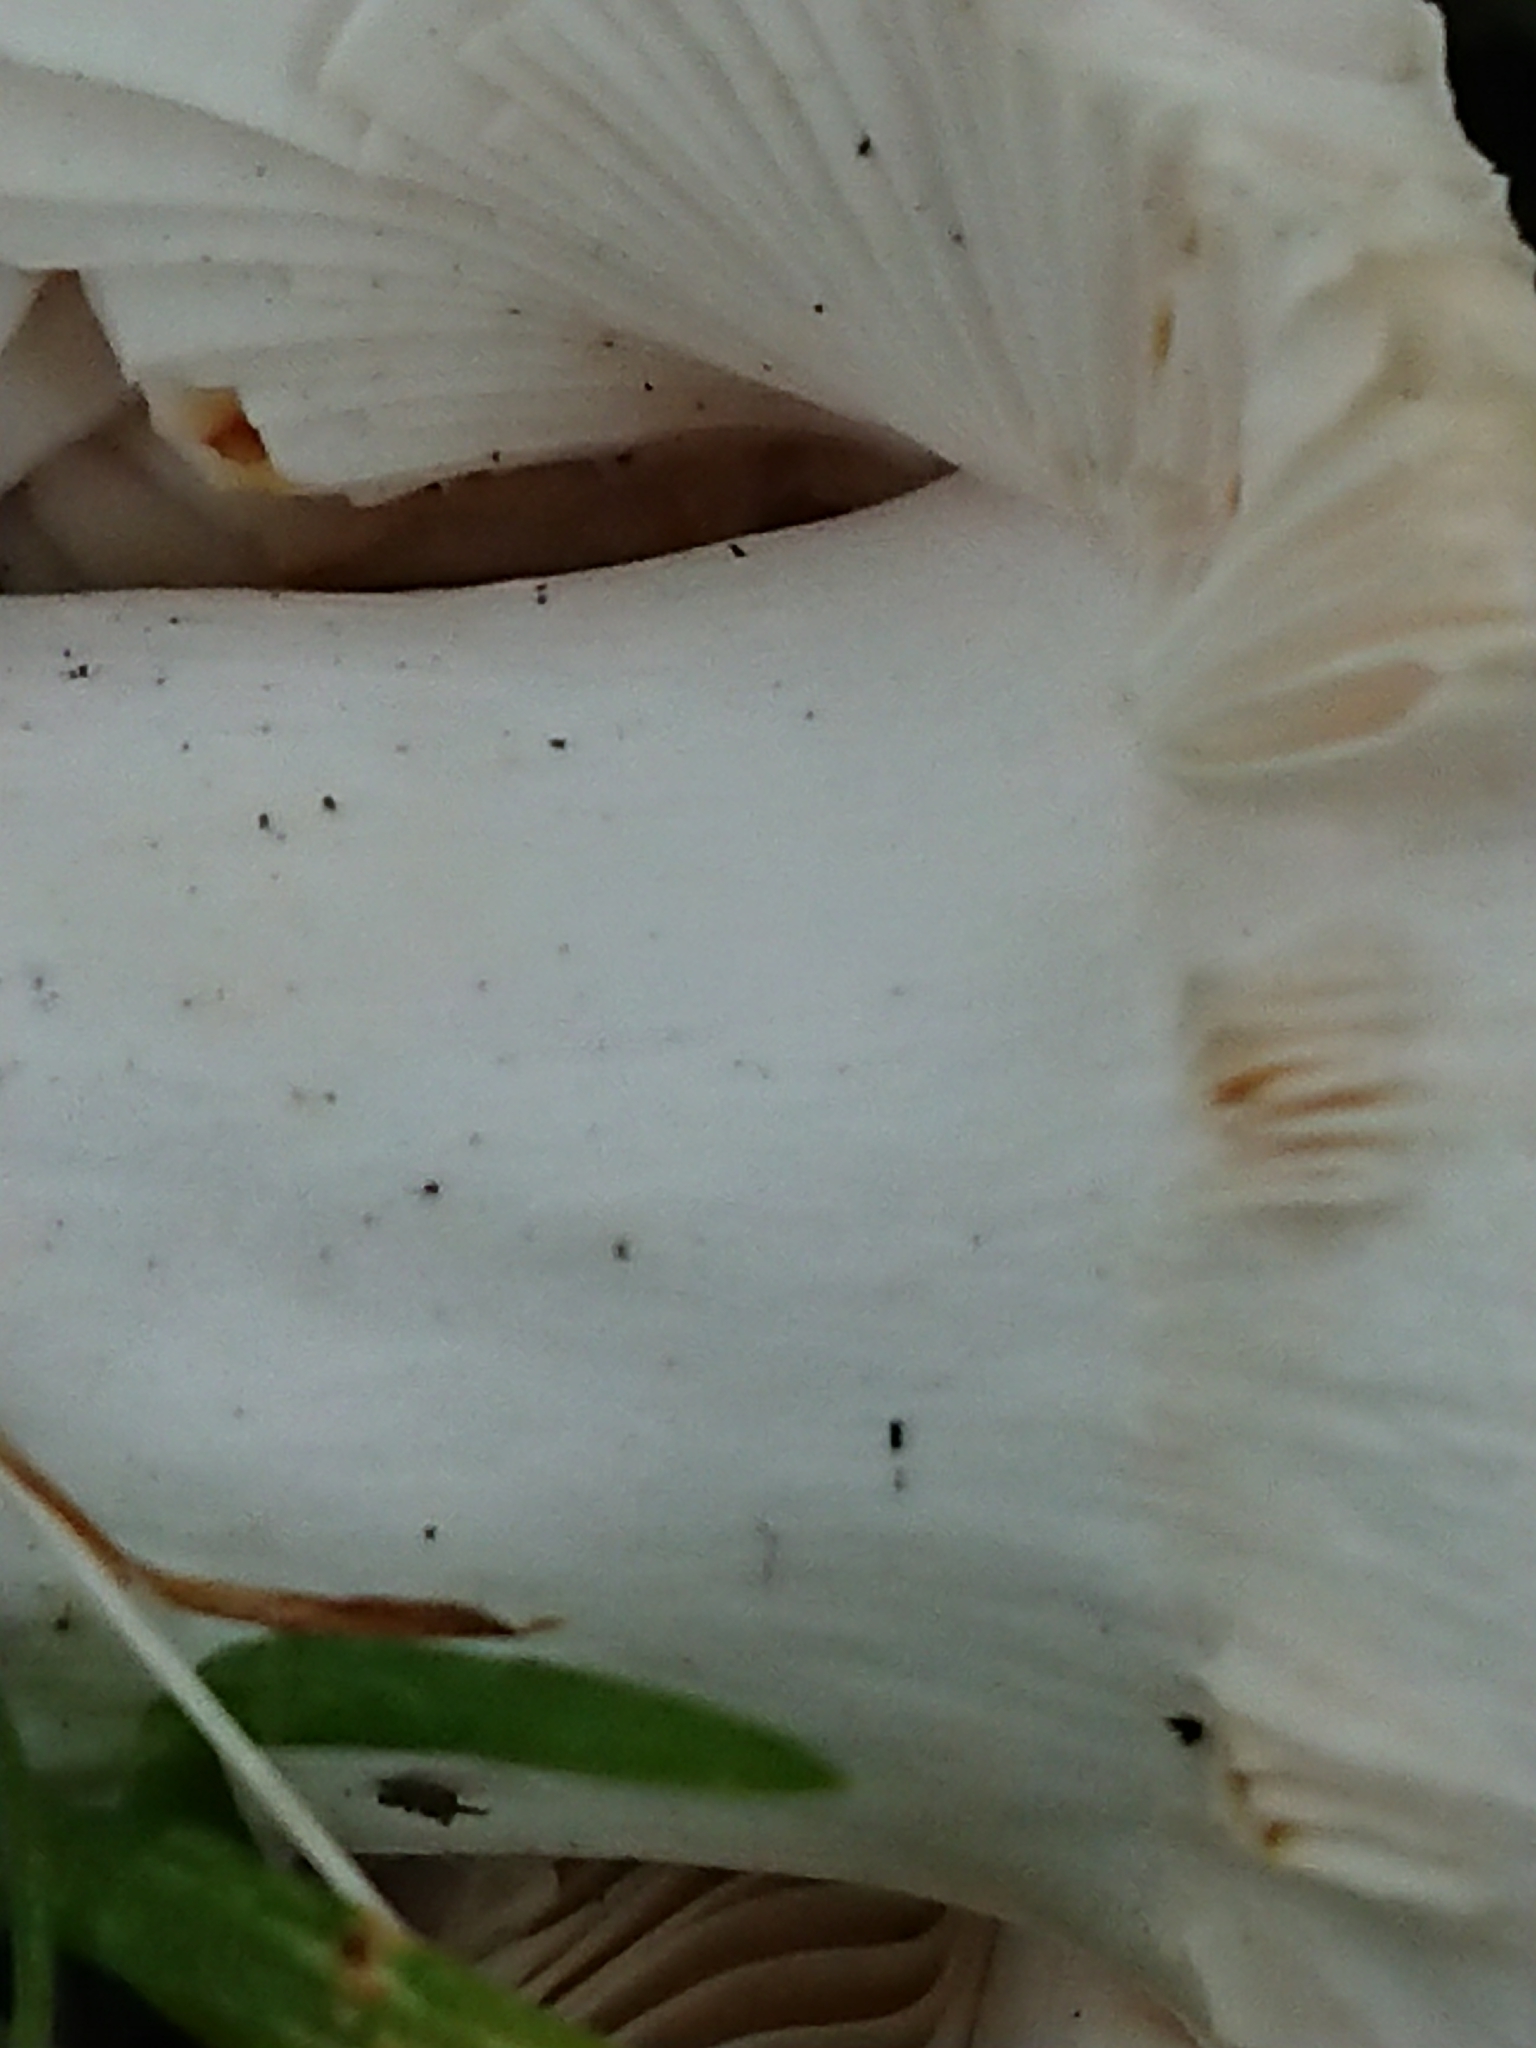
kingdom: Fungi
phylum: Basidiomycota
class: Agaricomycetes
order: Russulales
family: Russulaceae
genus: Russula
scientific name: Russula grisea
